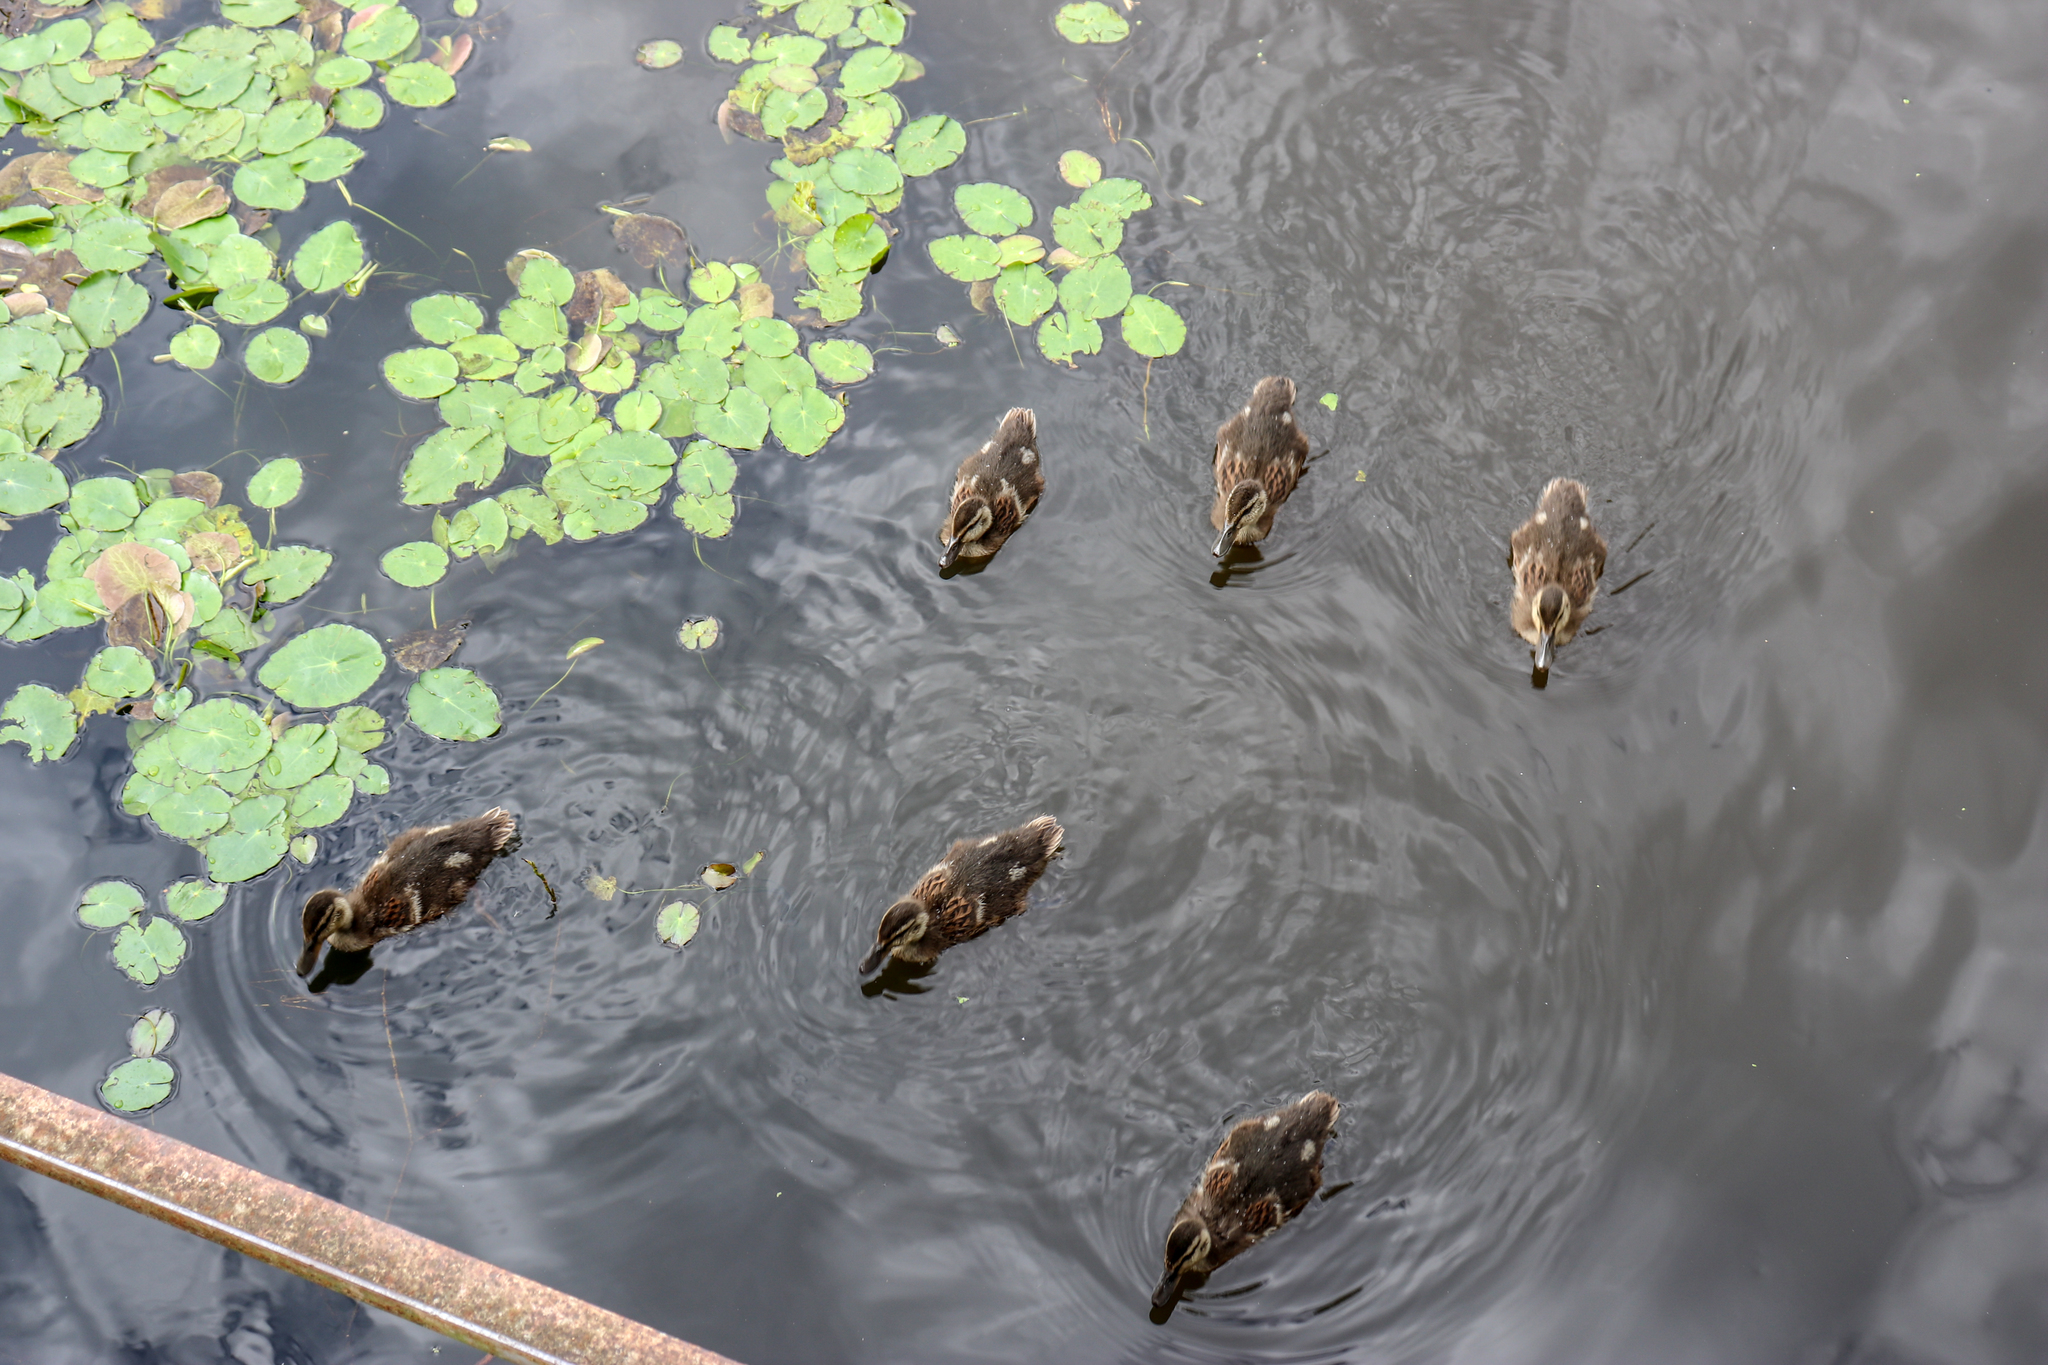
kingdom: Animalia
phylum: Chordata
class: Aves
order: Anseriformes
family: Anatidae
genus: Anas
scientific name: Anas platyrhynchos
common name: Mallard
